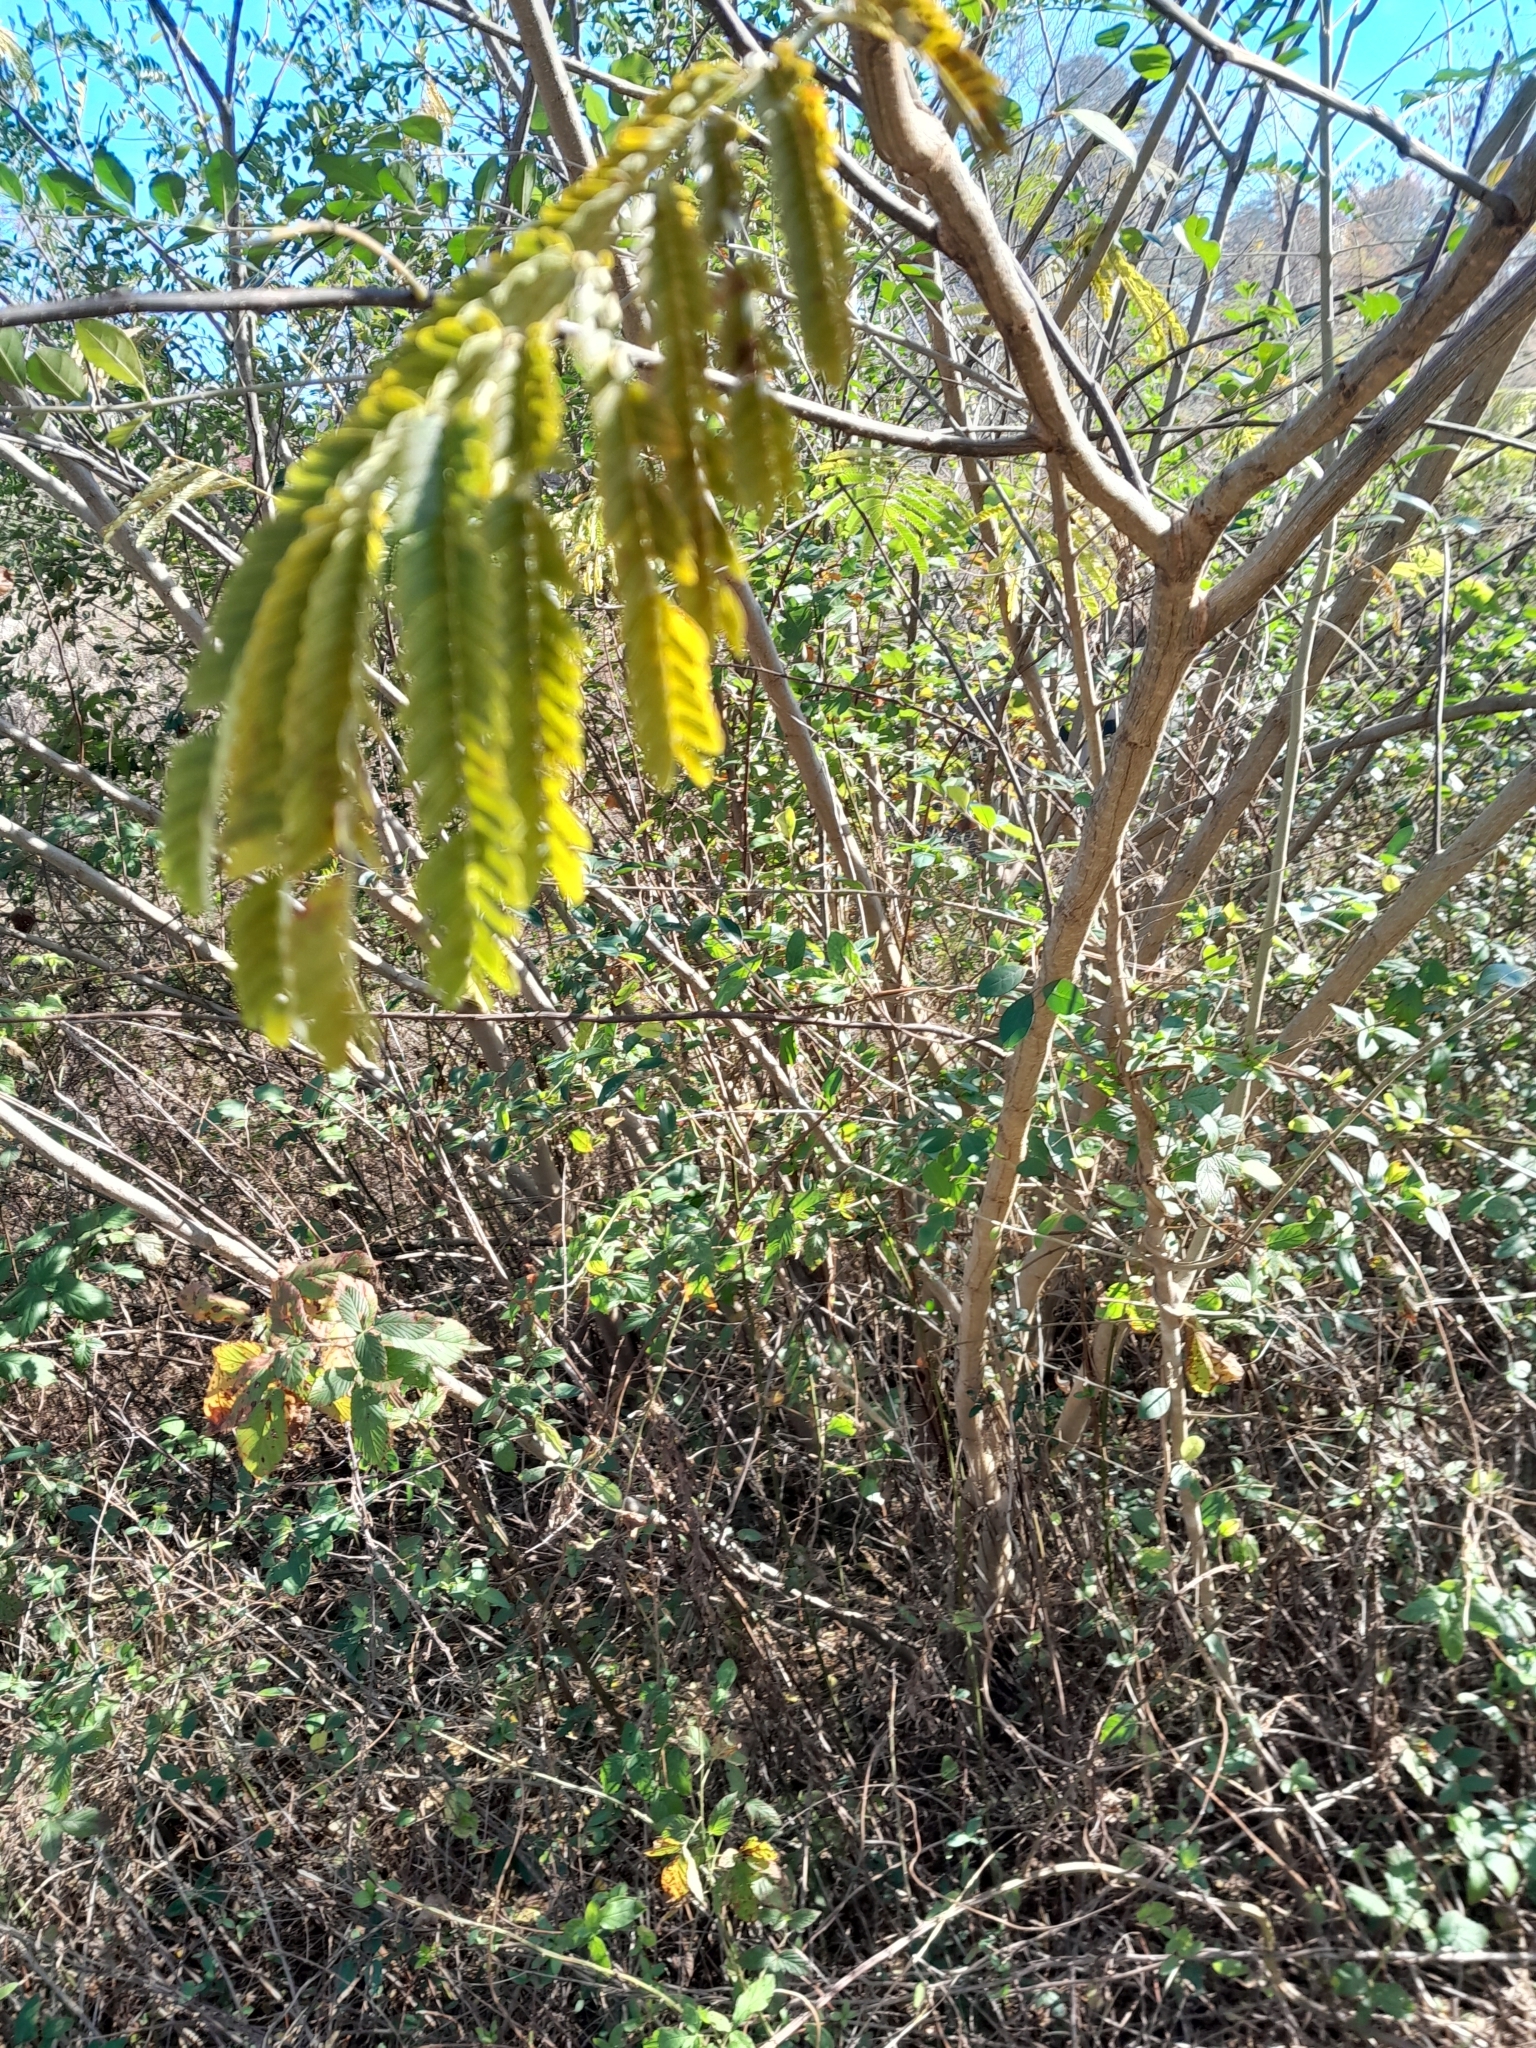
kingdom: Plantae
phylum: Tracheophyta
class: Magnoliopsida
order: Fabales
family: Fabaceae
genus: Albizia
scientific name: Albizia julibrissin
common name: Silktree
